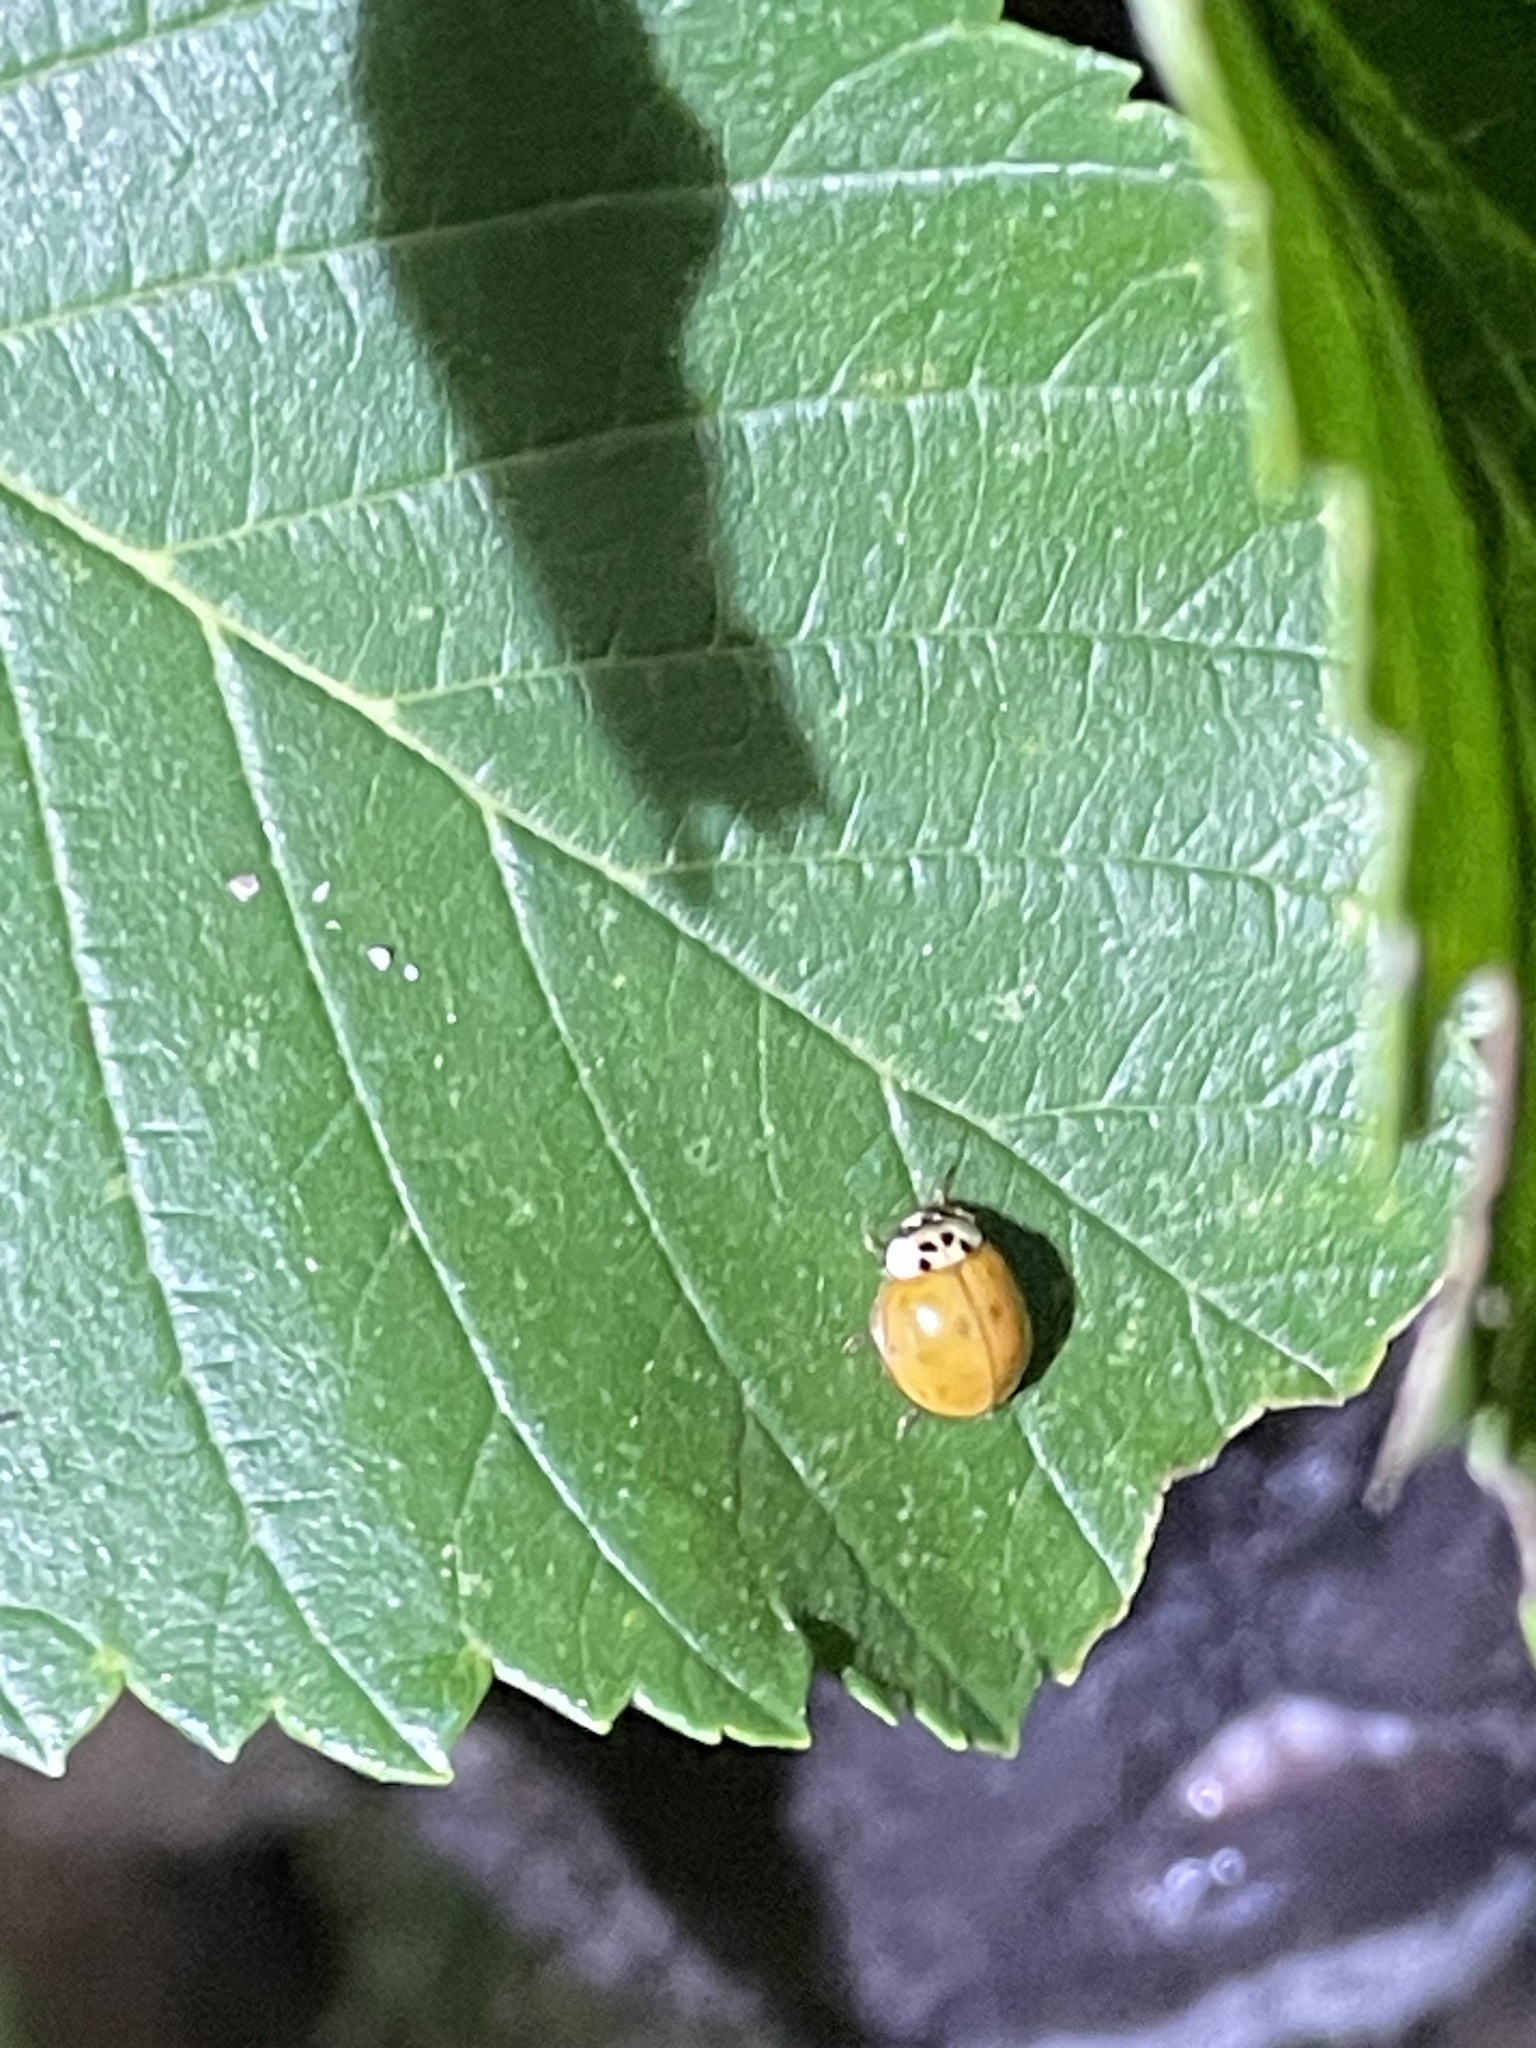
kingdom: Animalia
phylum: Arthropoda
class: Insecta
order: Coleoptera
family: Coccinellidae
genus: Harmonia
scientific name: Harmonia axyridis
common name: Harlequin ladybird
